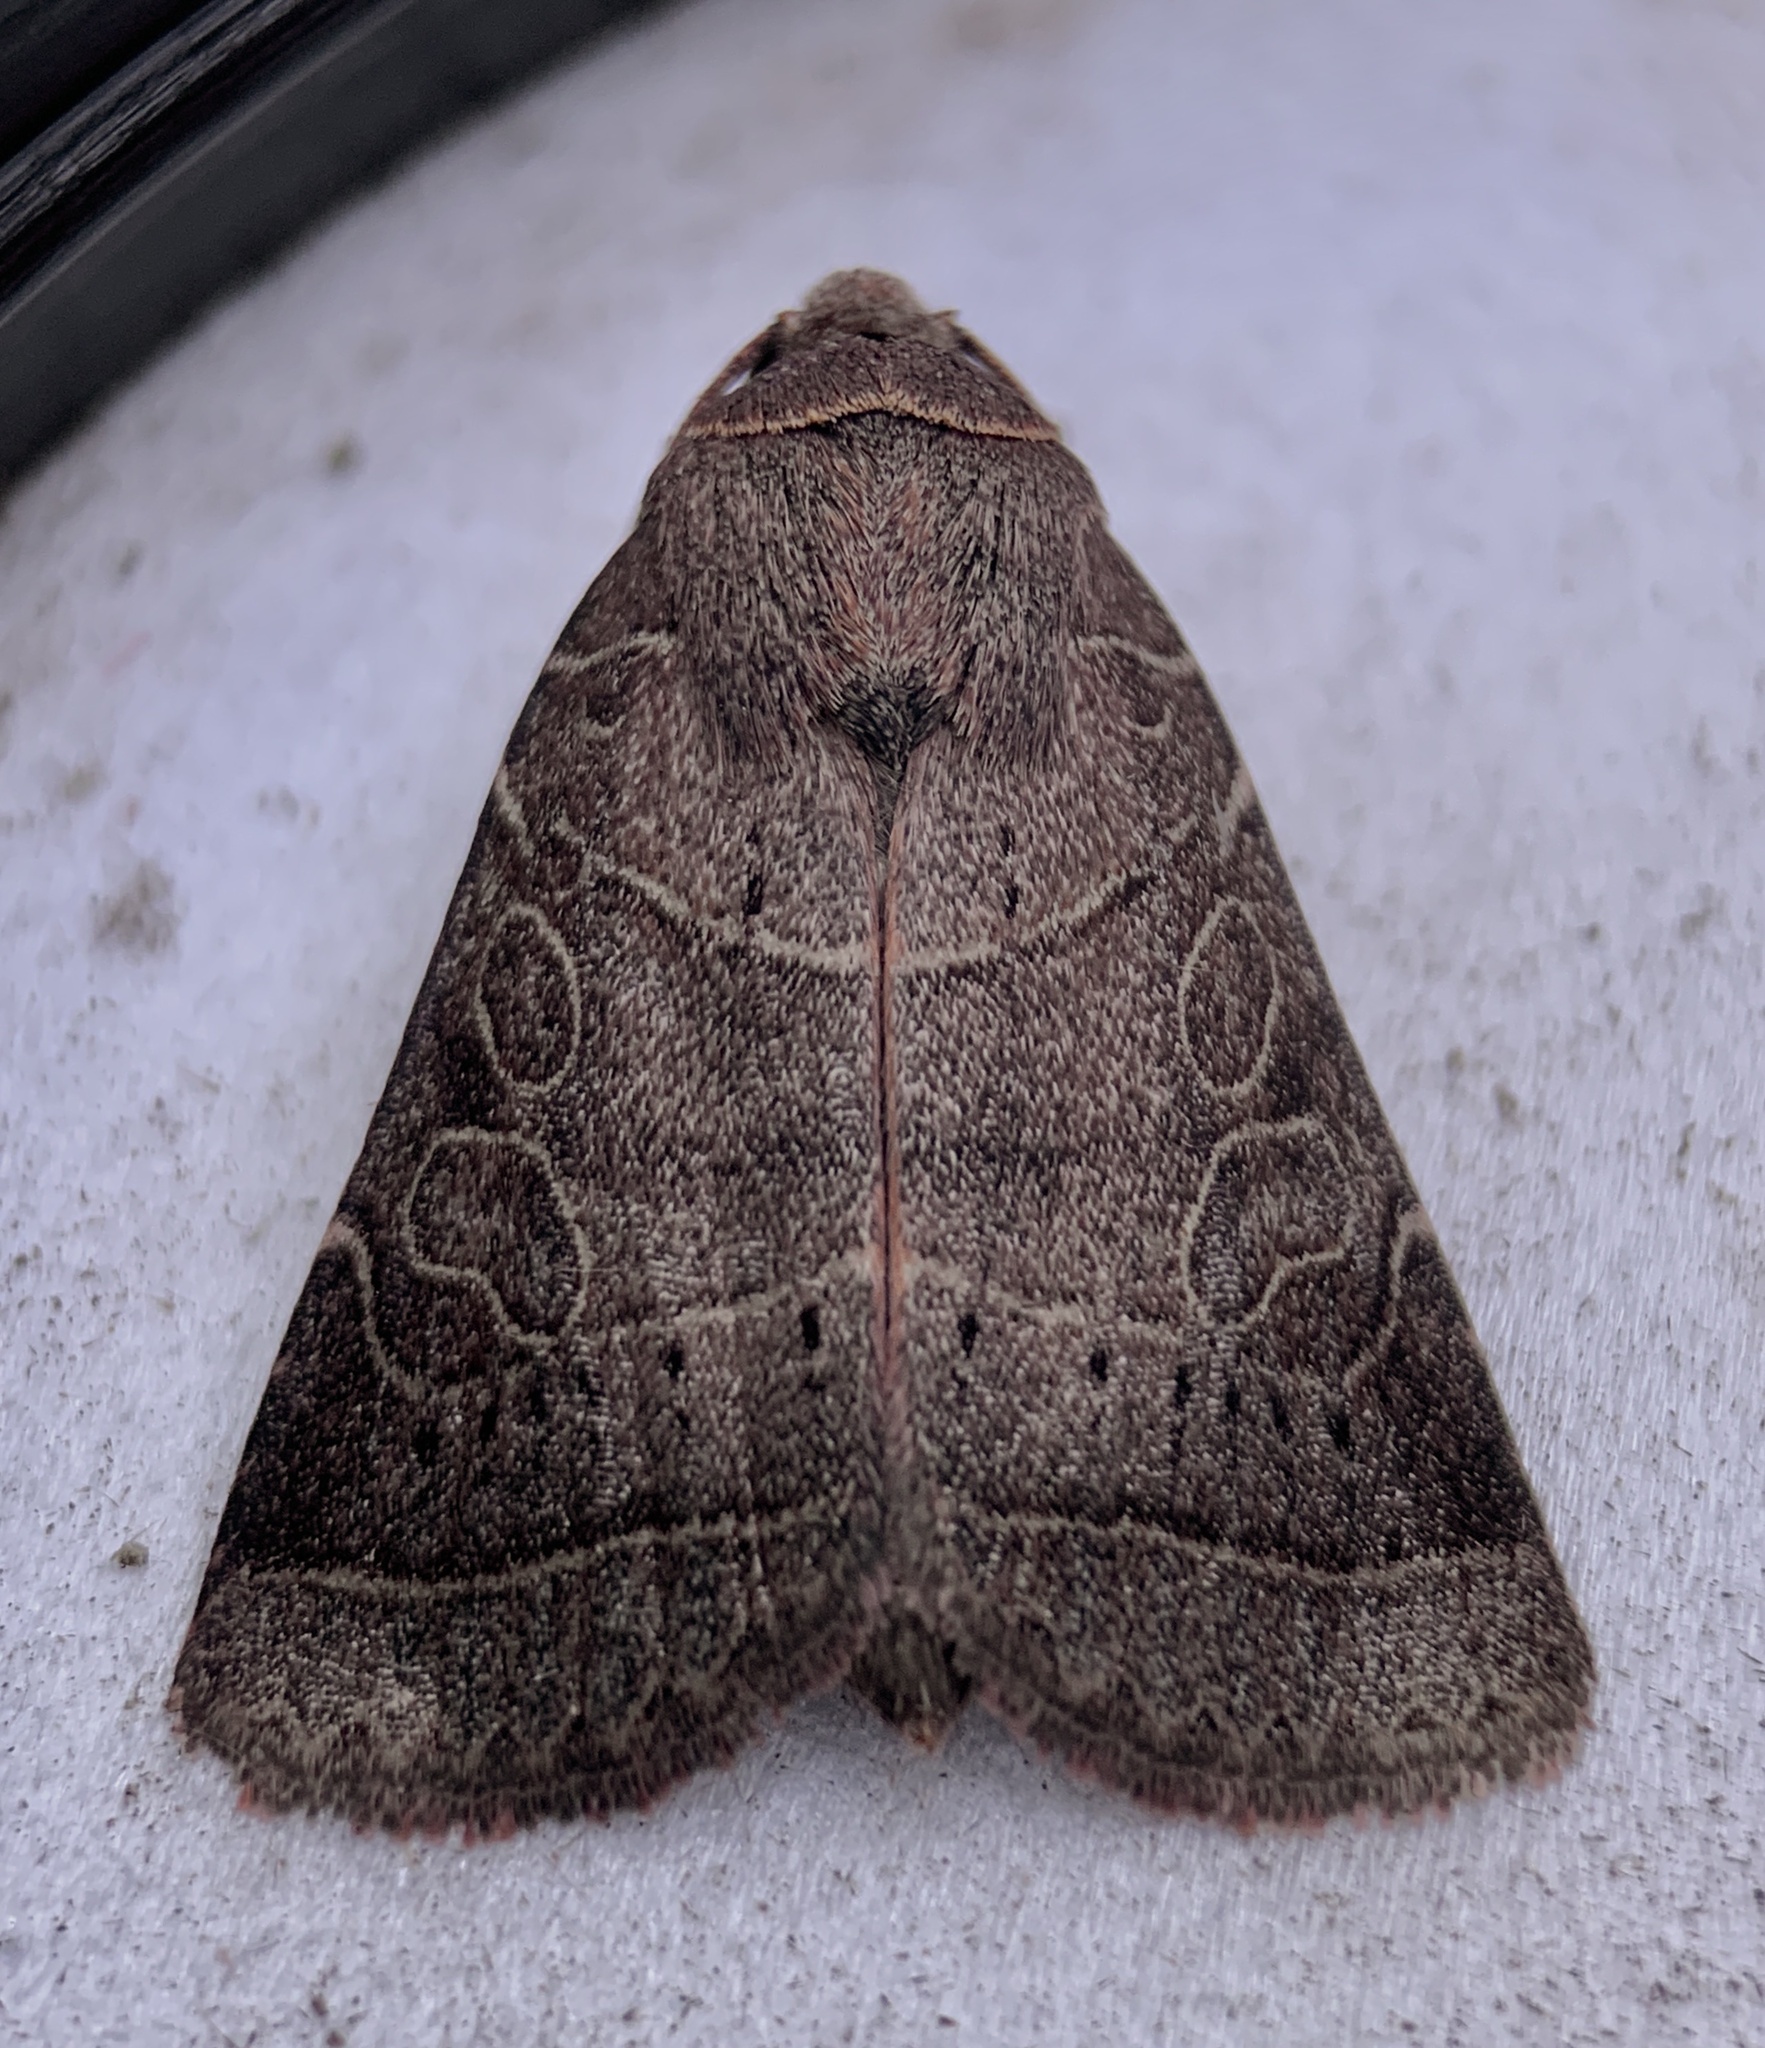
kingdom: Animalia
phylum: Arthropoda
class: Insecta
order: Lepidoptera
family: Noctuidae
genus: Orthodes
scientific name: Orthodes majuscula
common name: Rustic quaker
